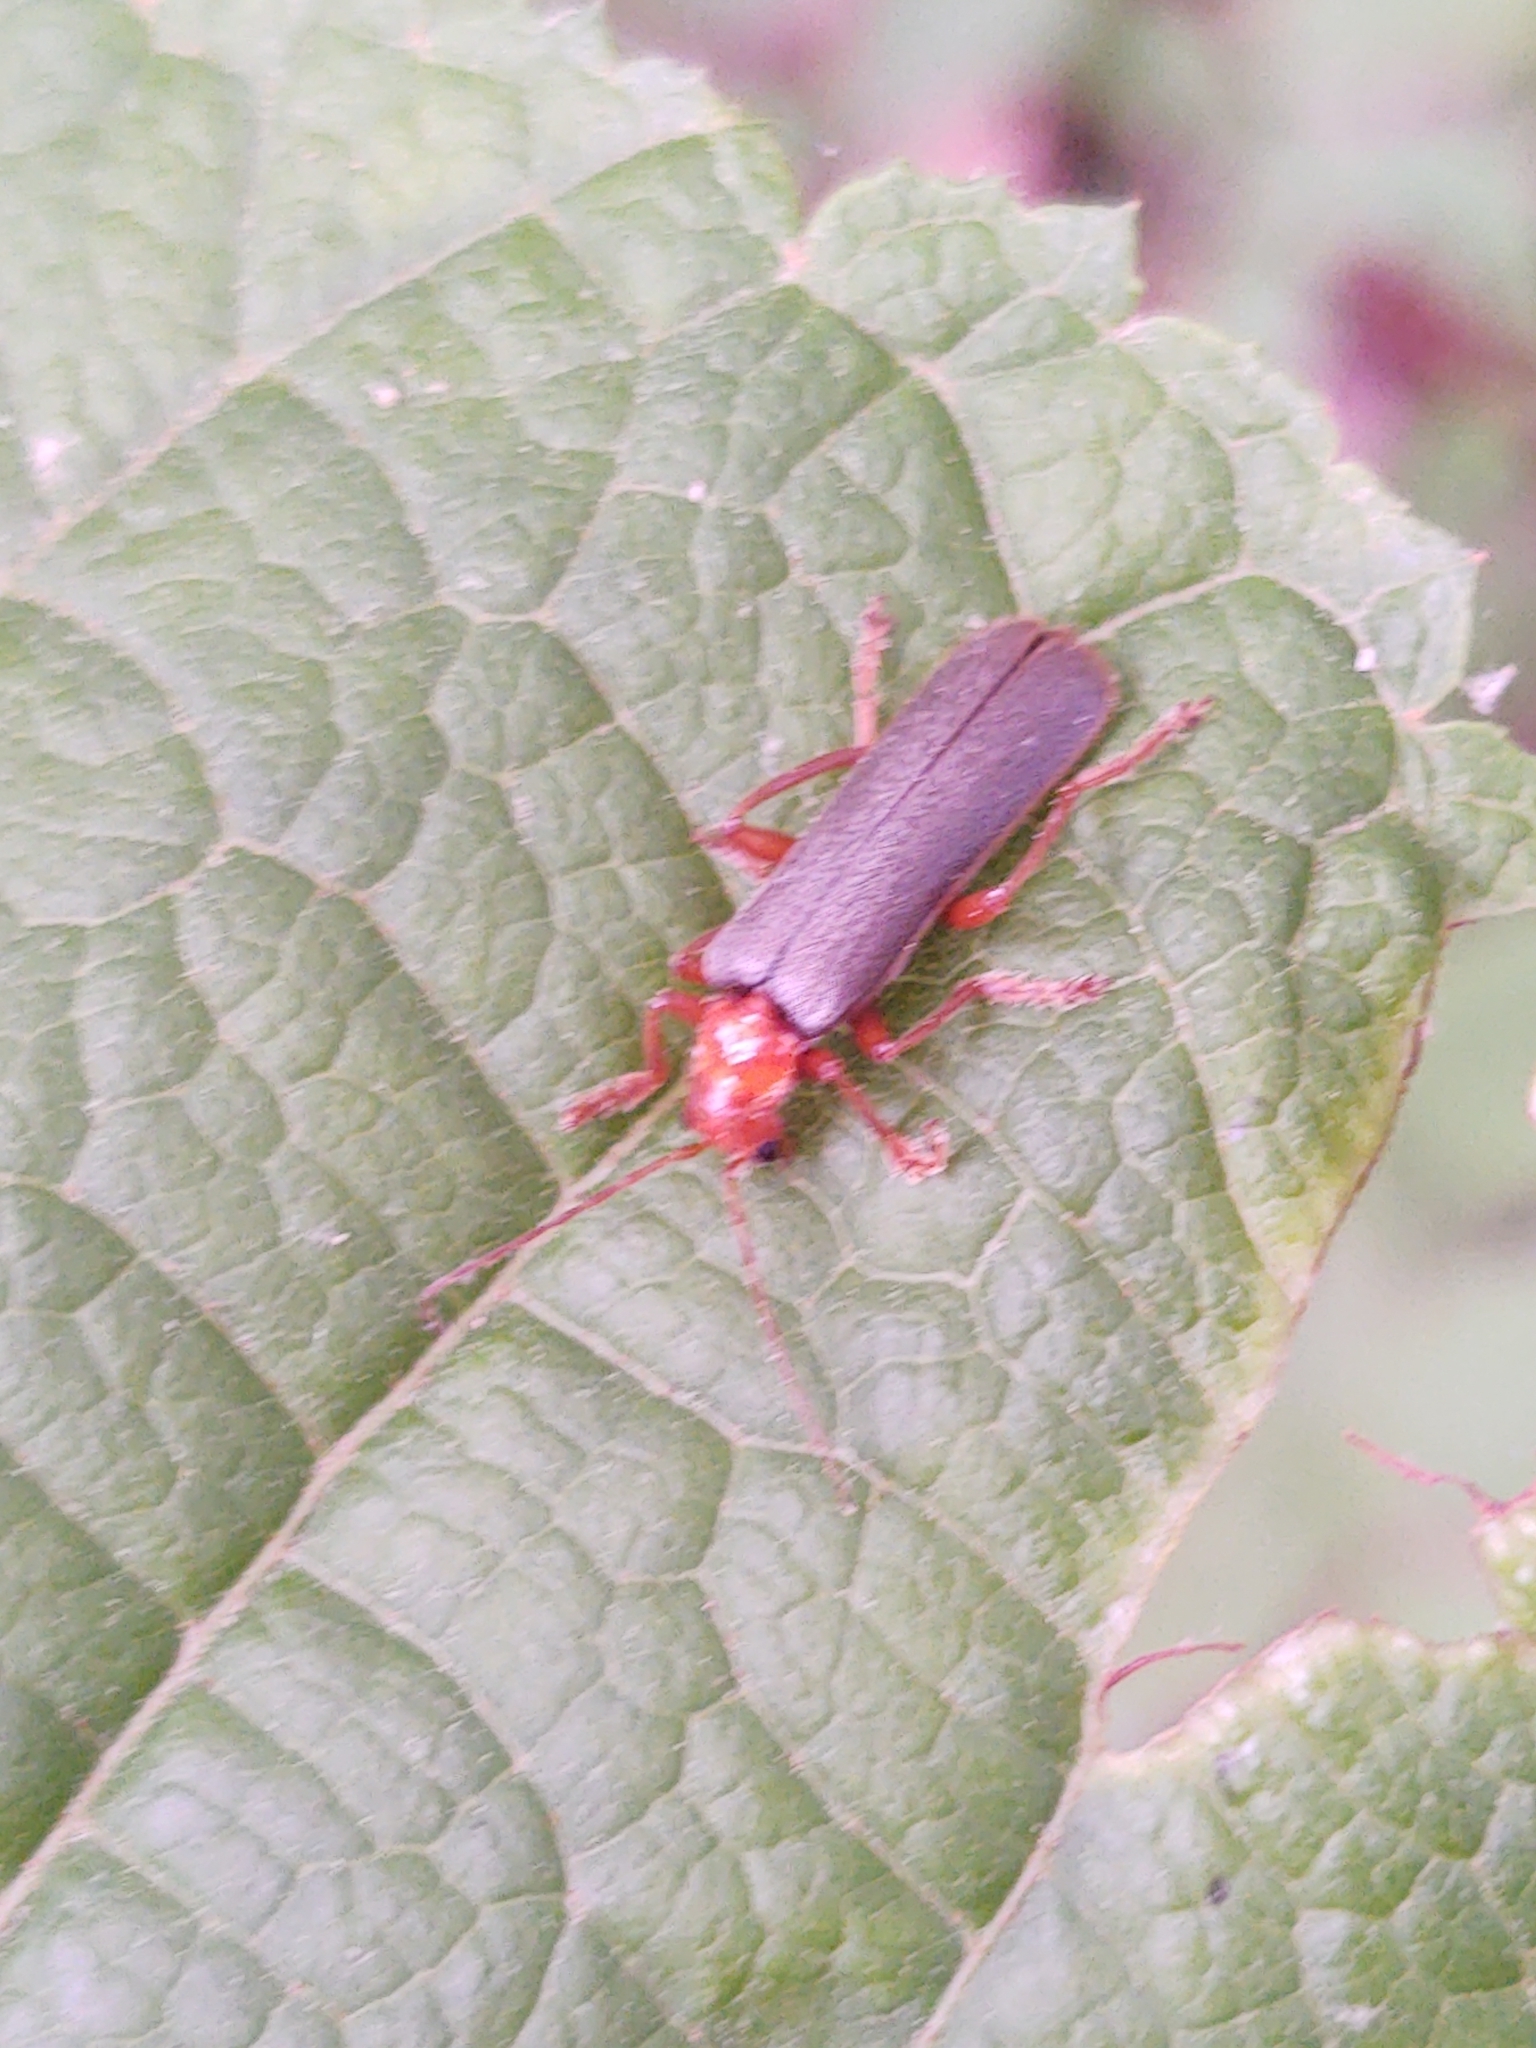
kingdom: Animalia
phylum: Arthropoda
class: Insecta
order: Coleoptera
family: Cantharidae
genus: Pacificanthia
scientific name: Pacificanthia rotundicollis
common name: Brown leatherwing beetle
